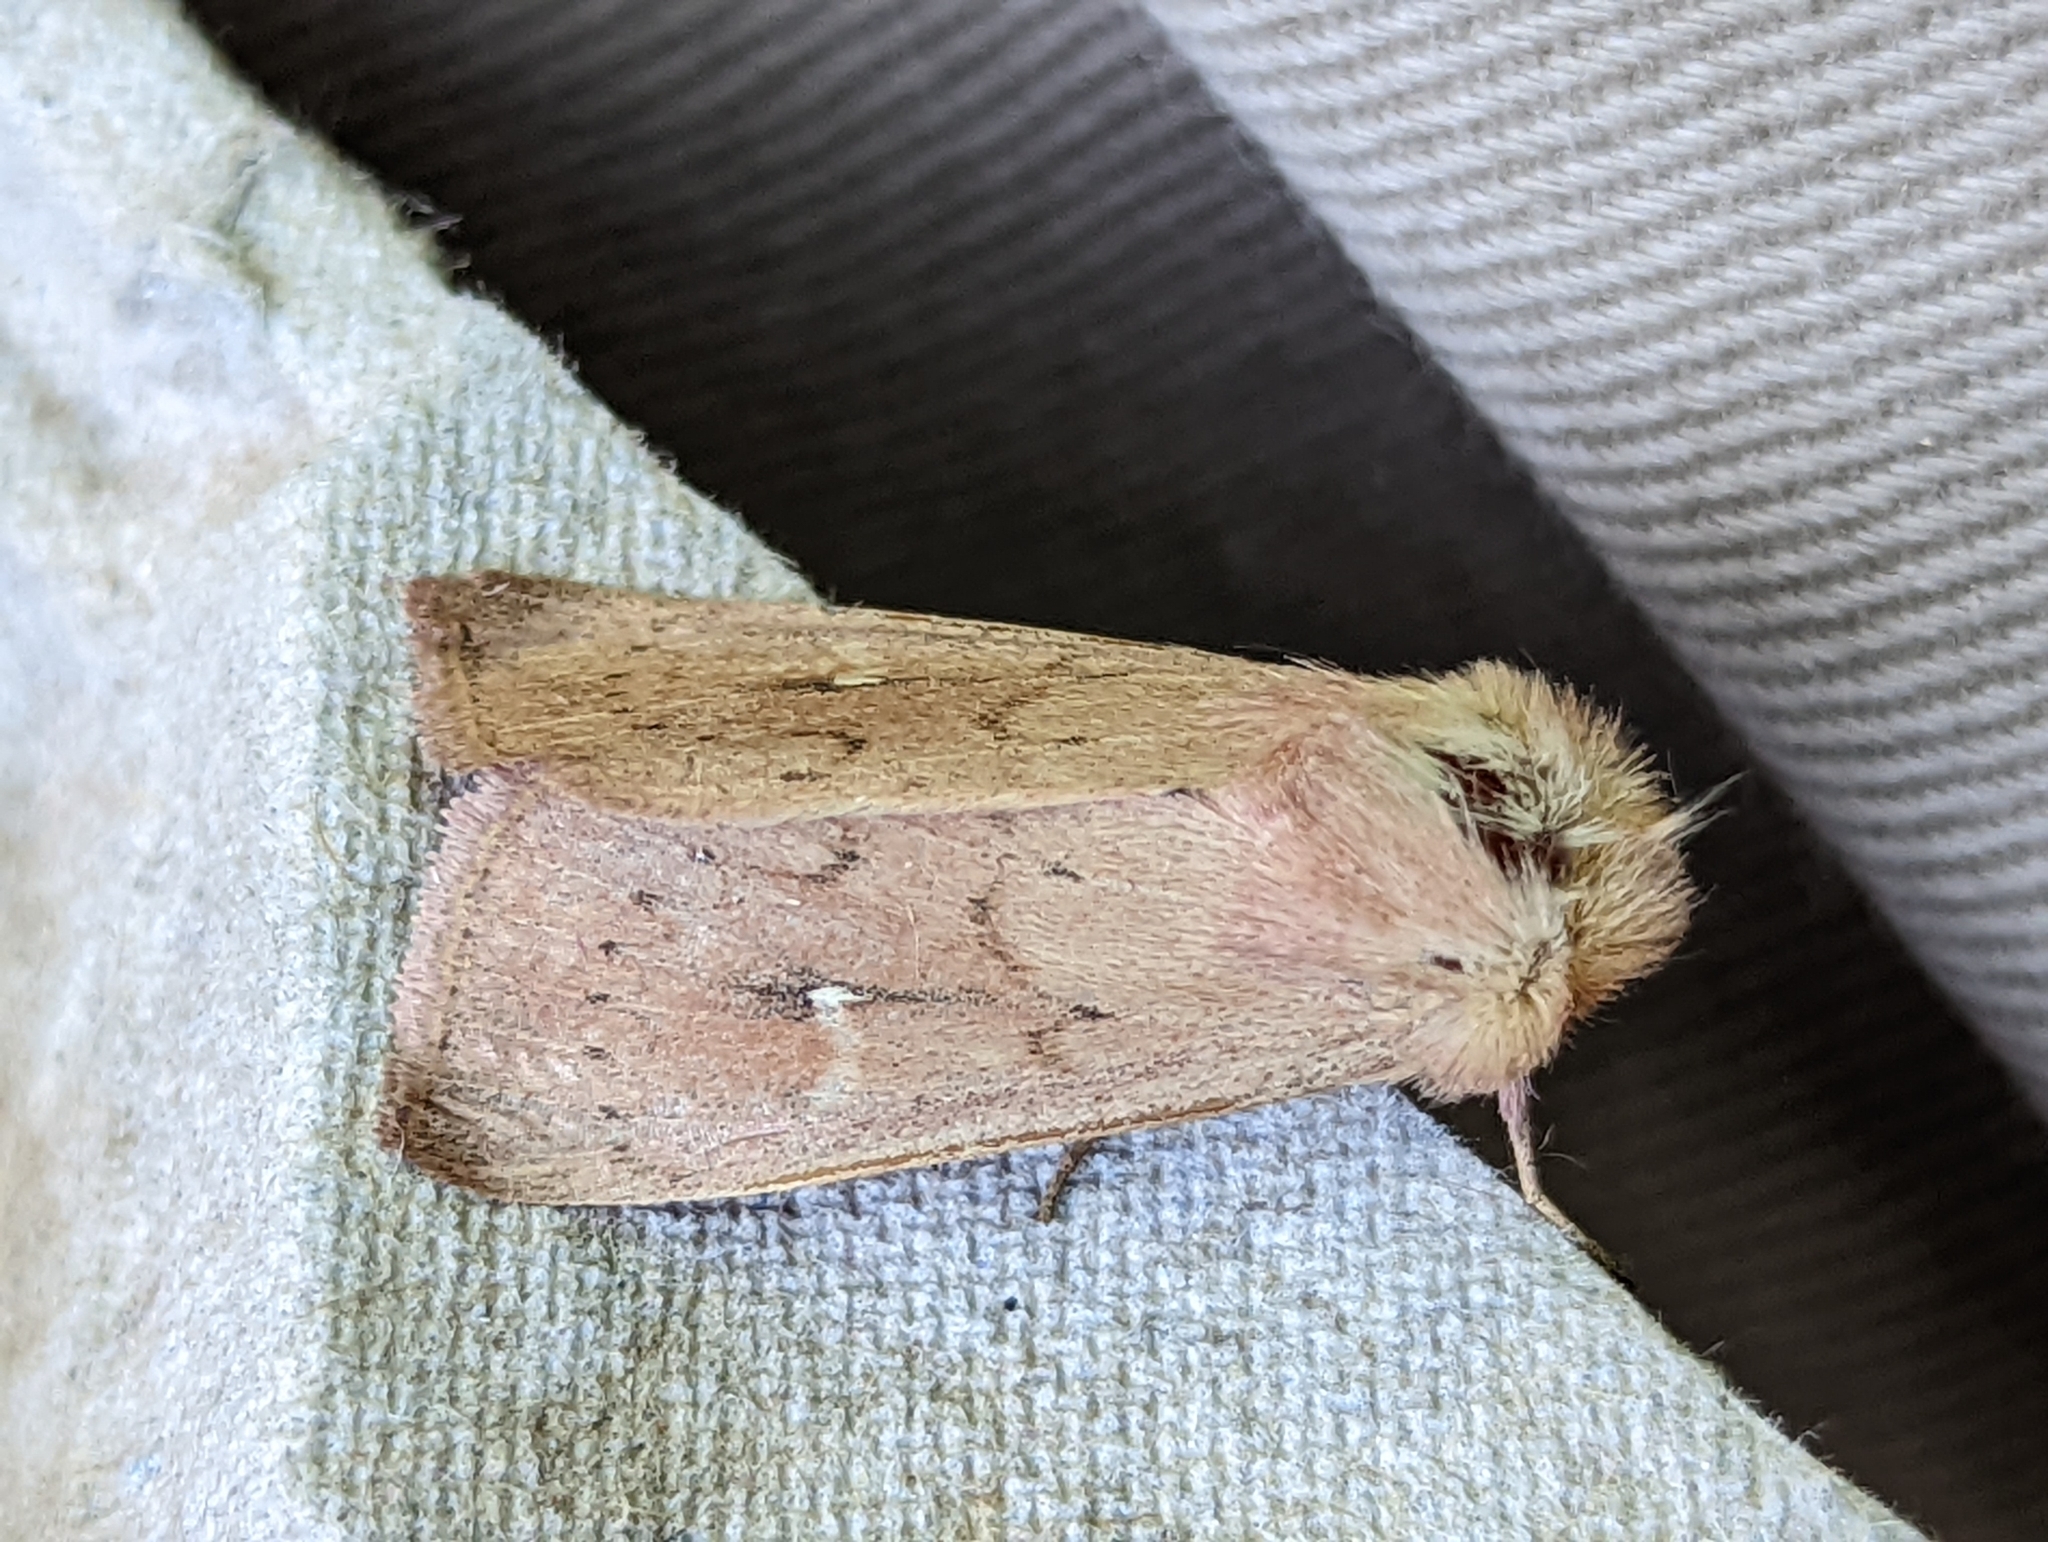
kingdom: Animalia
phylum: Arthropoda
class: Insecta
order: Lepidoptera
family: Noctuidae
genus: Mythimna
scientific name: Mythimna ferrago
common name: Clay
